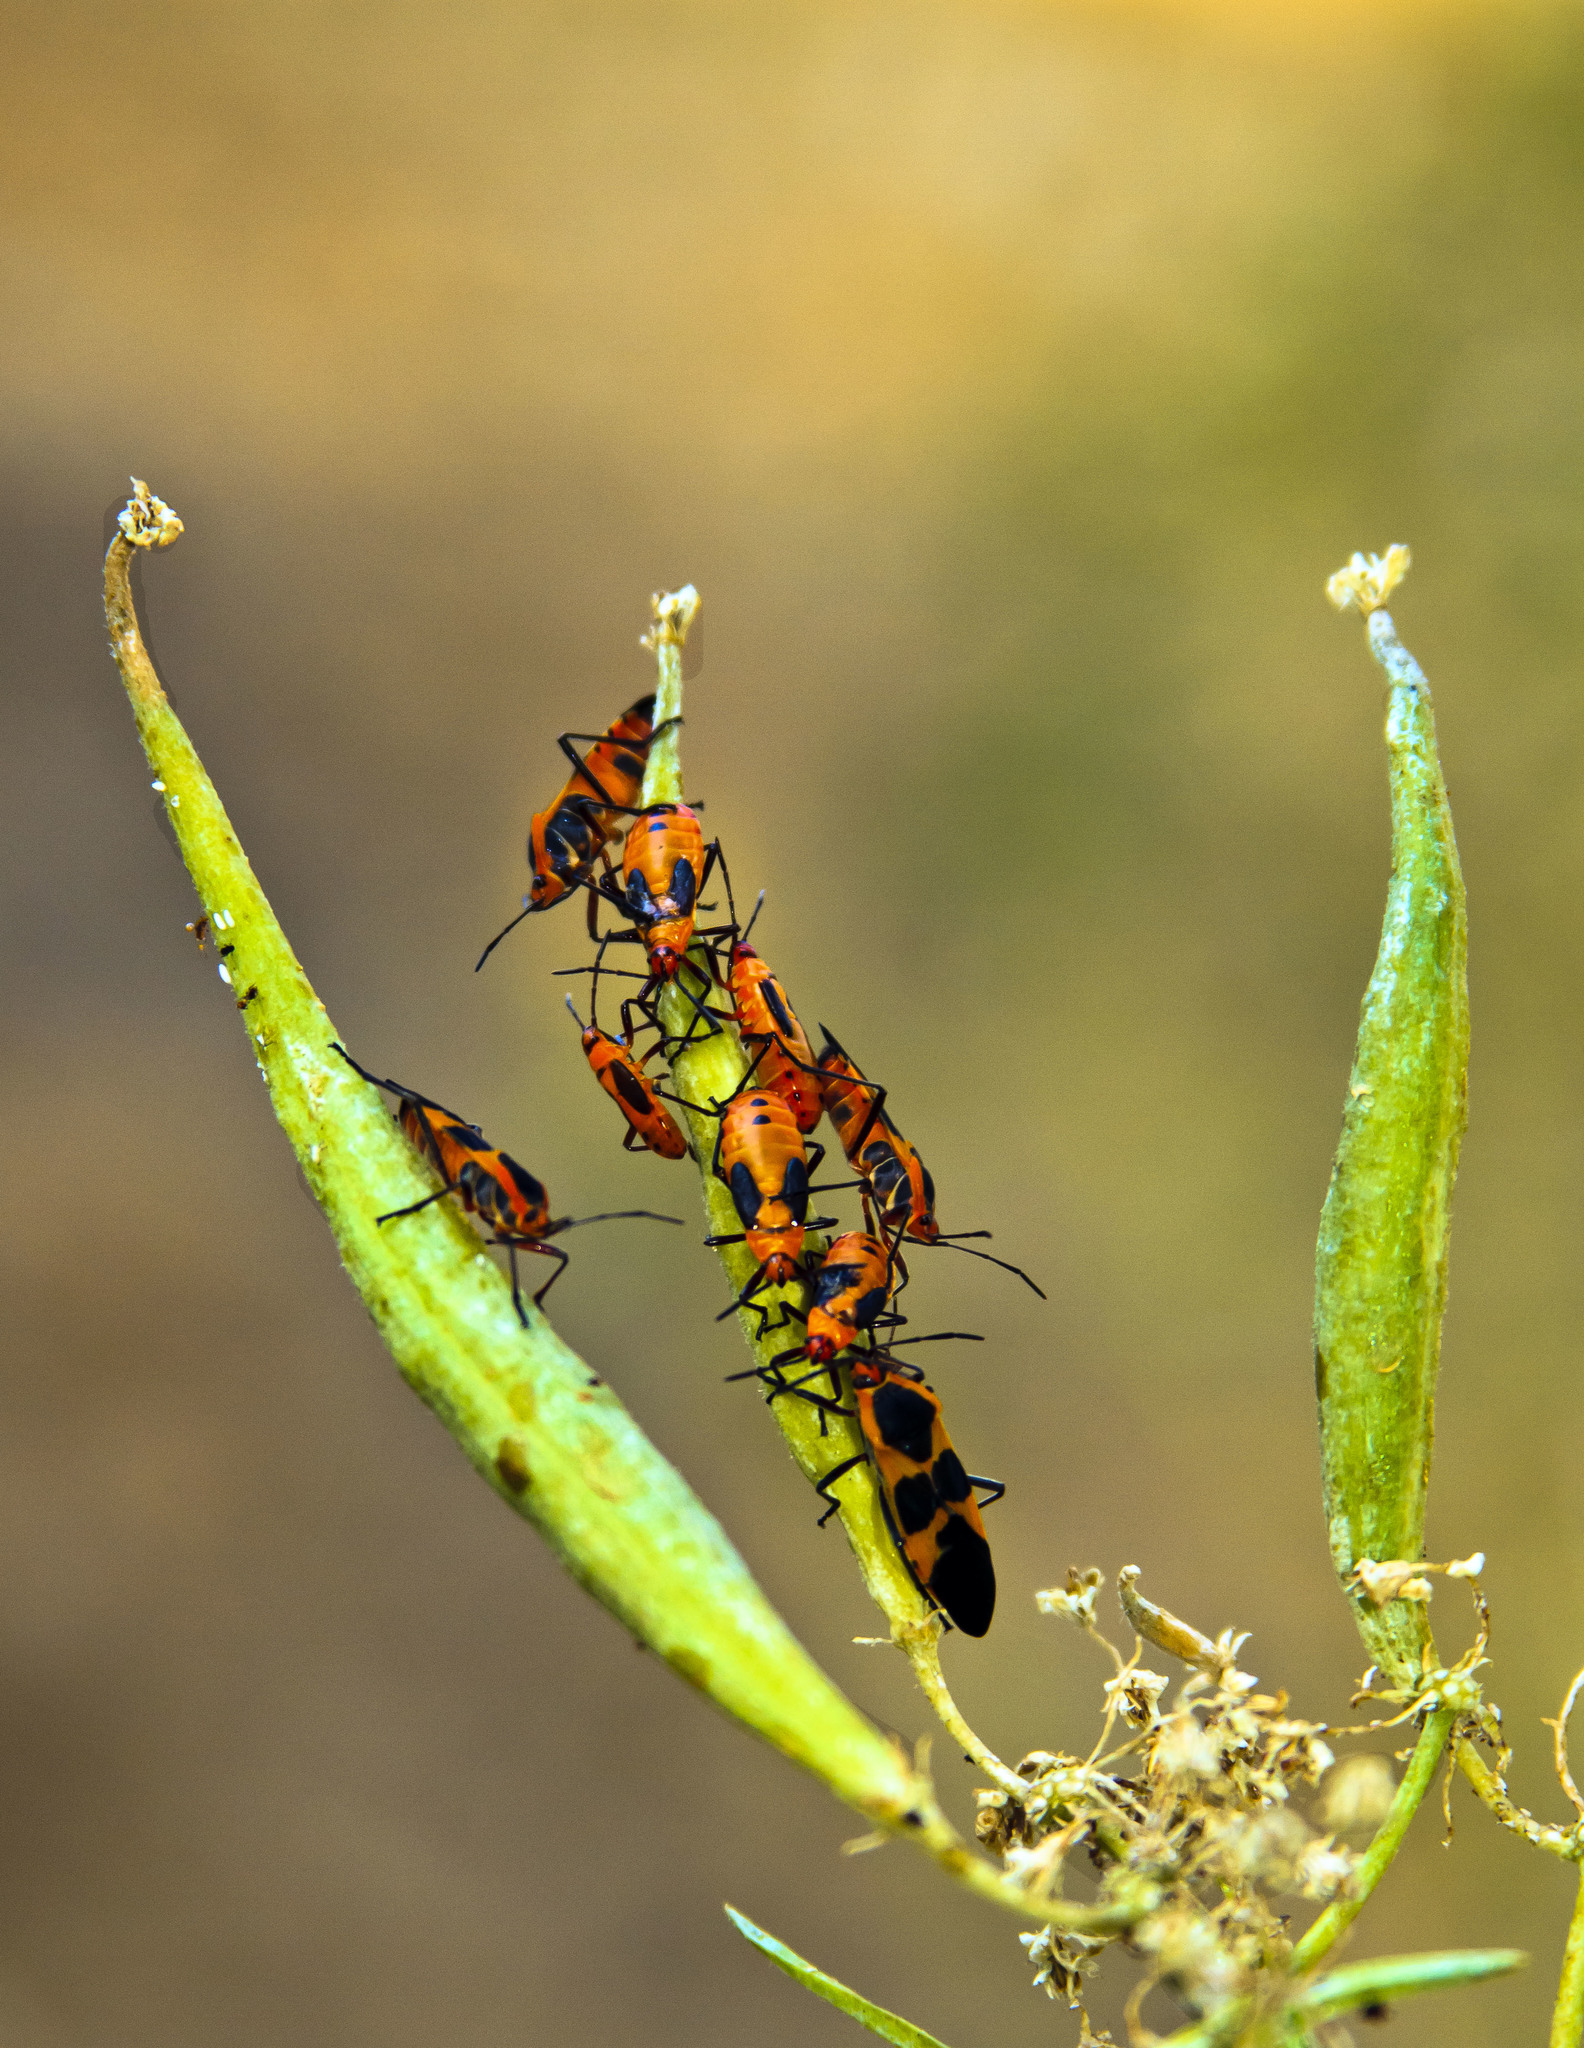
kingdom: Animalia
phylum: Arthropoda
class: Insecta
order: Hemiptera
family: Lygaeidae
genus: Oncopeltus
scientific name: Oncopeltus fasciatus
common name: Large milkweed bug
